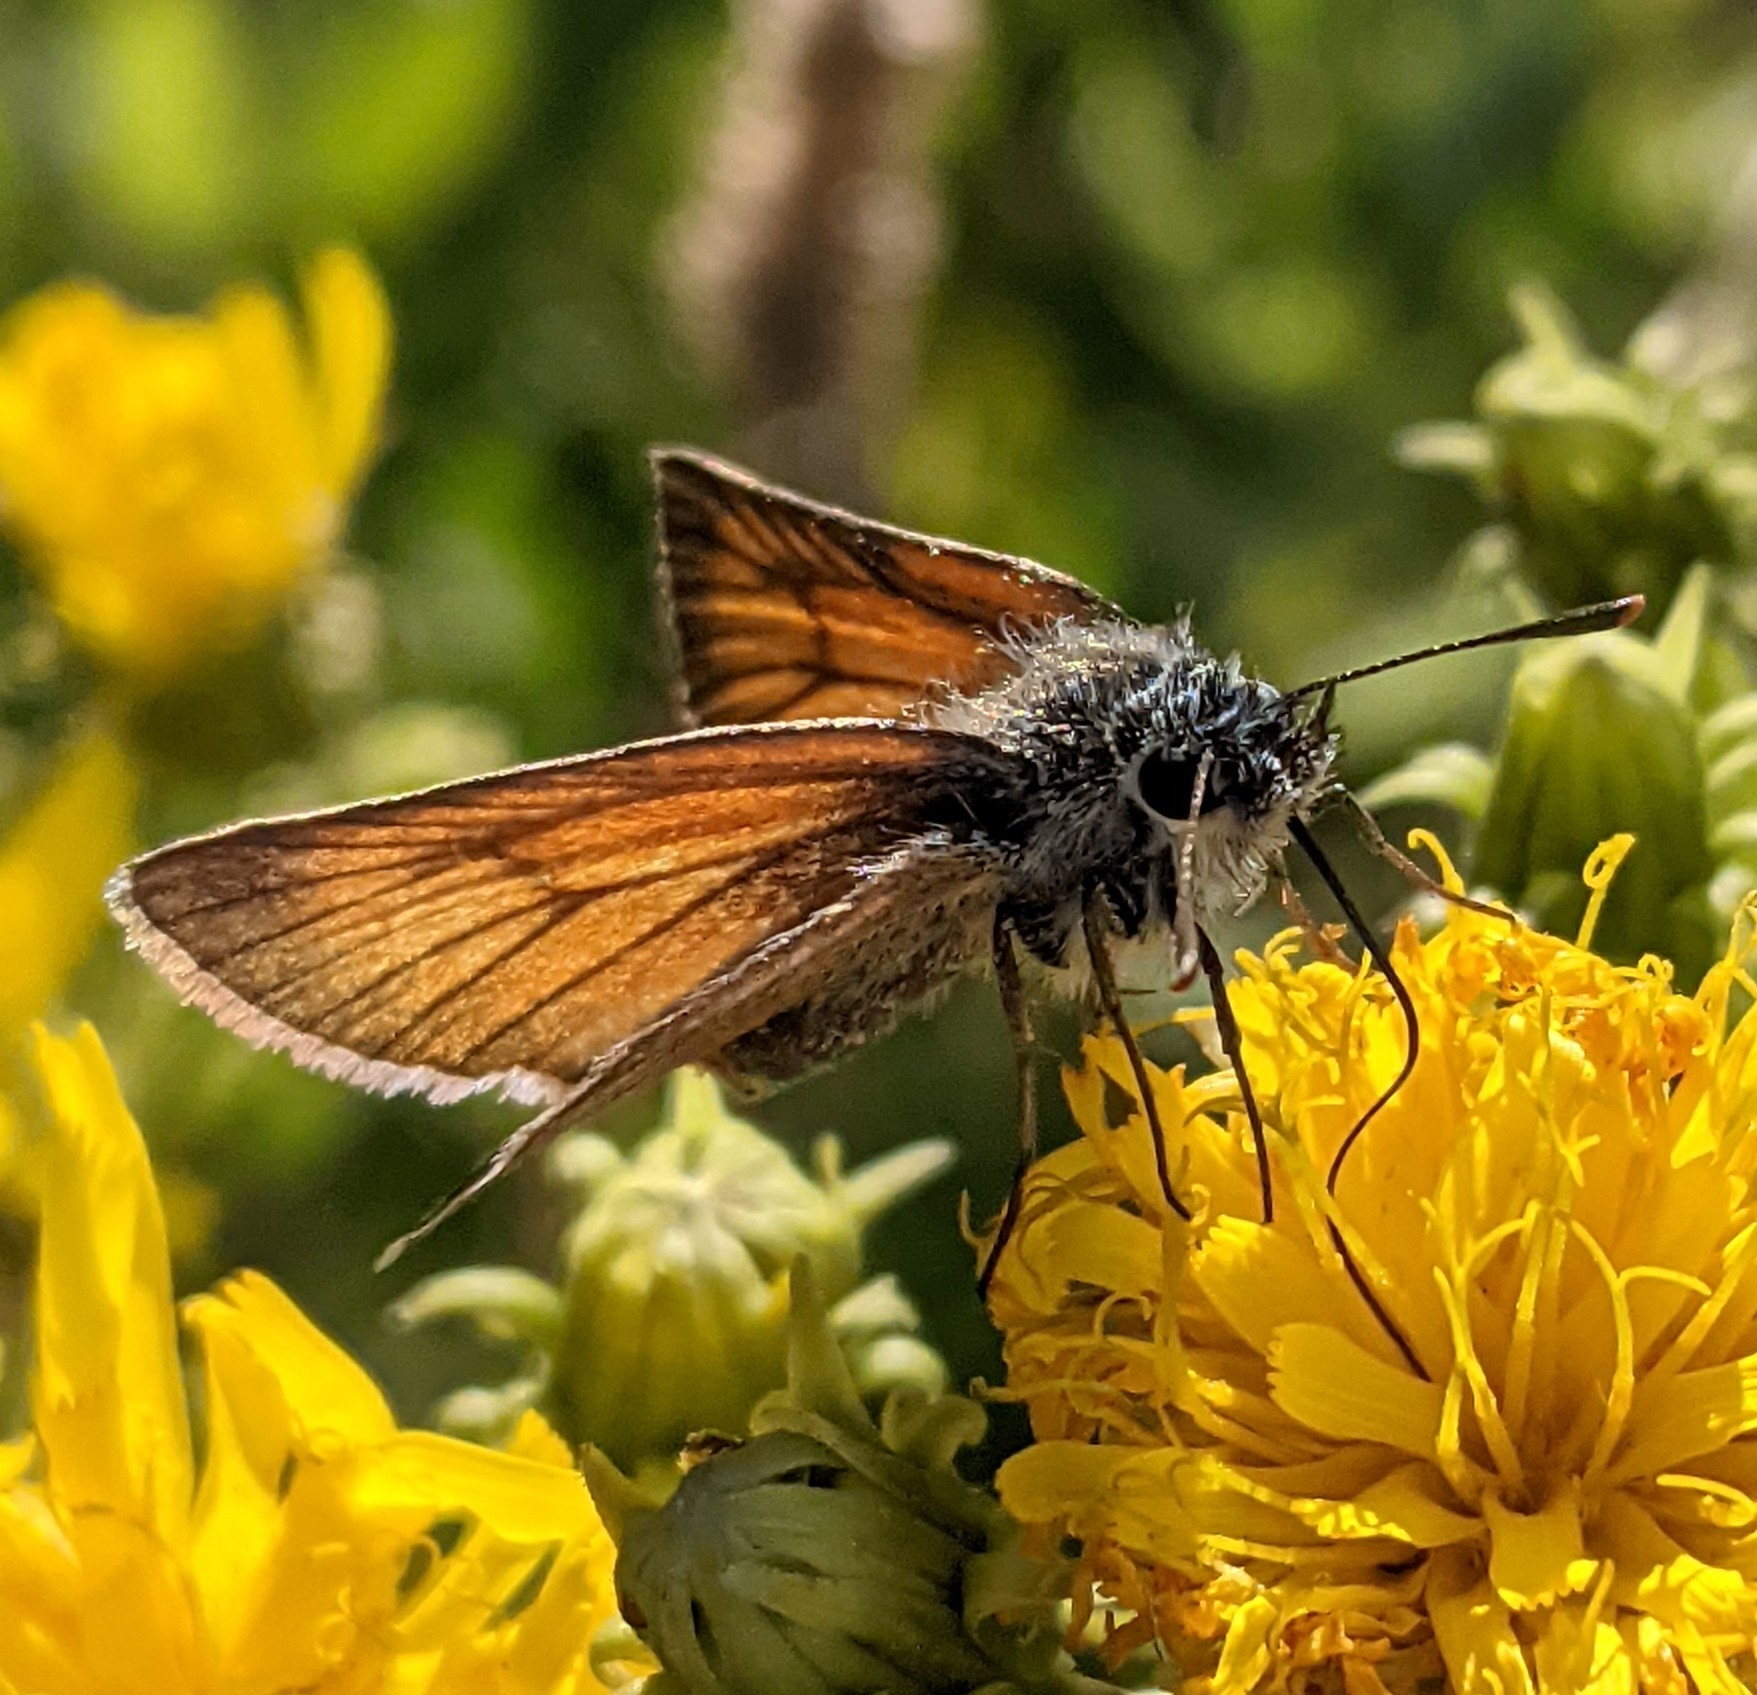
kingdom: Animalia
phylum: Arthropoda
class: Insecta
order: Lepidoptera
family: Hesperiidae
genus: Thymelicus
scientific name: Thymelicus sylvestris
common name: Small skipper
